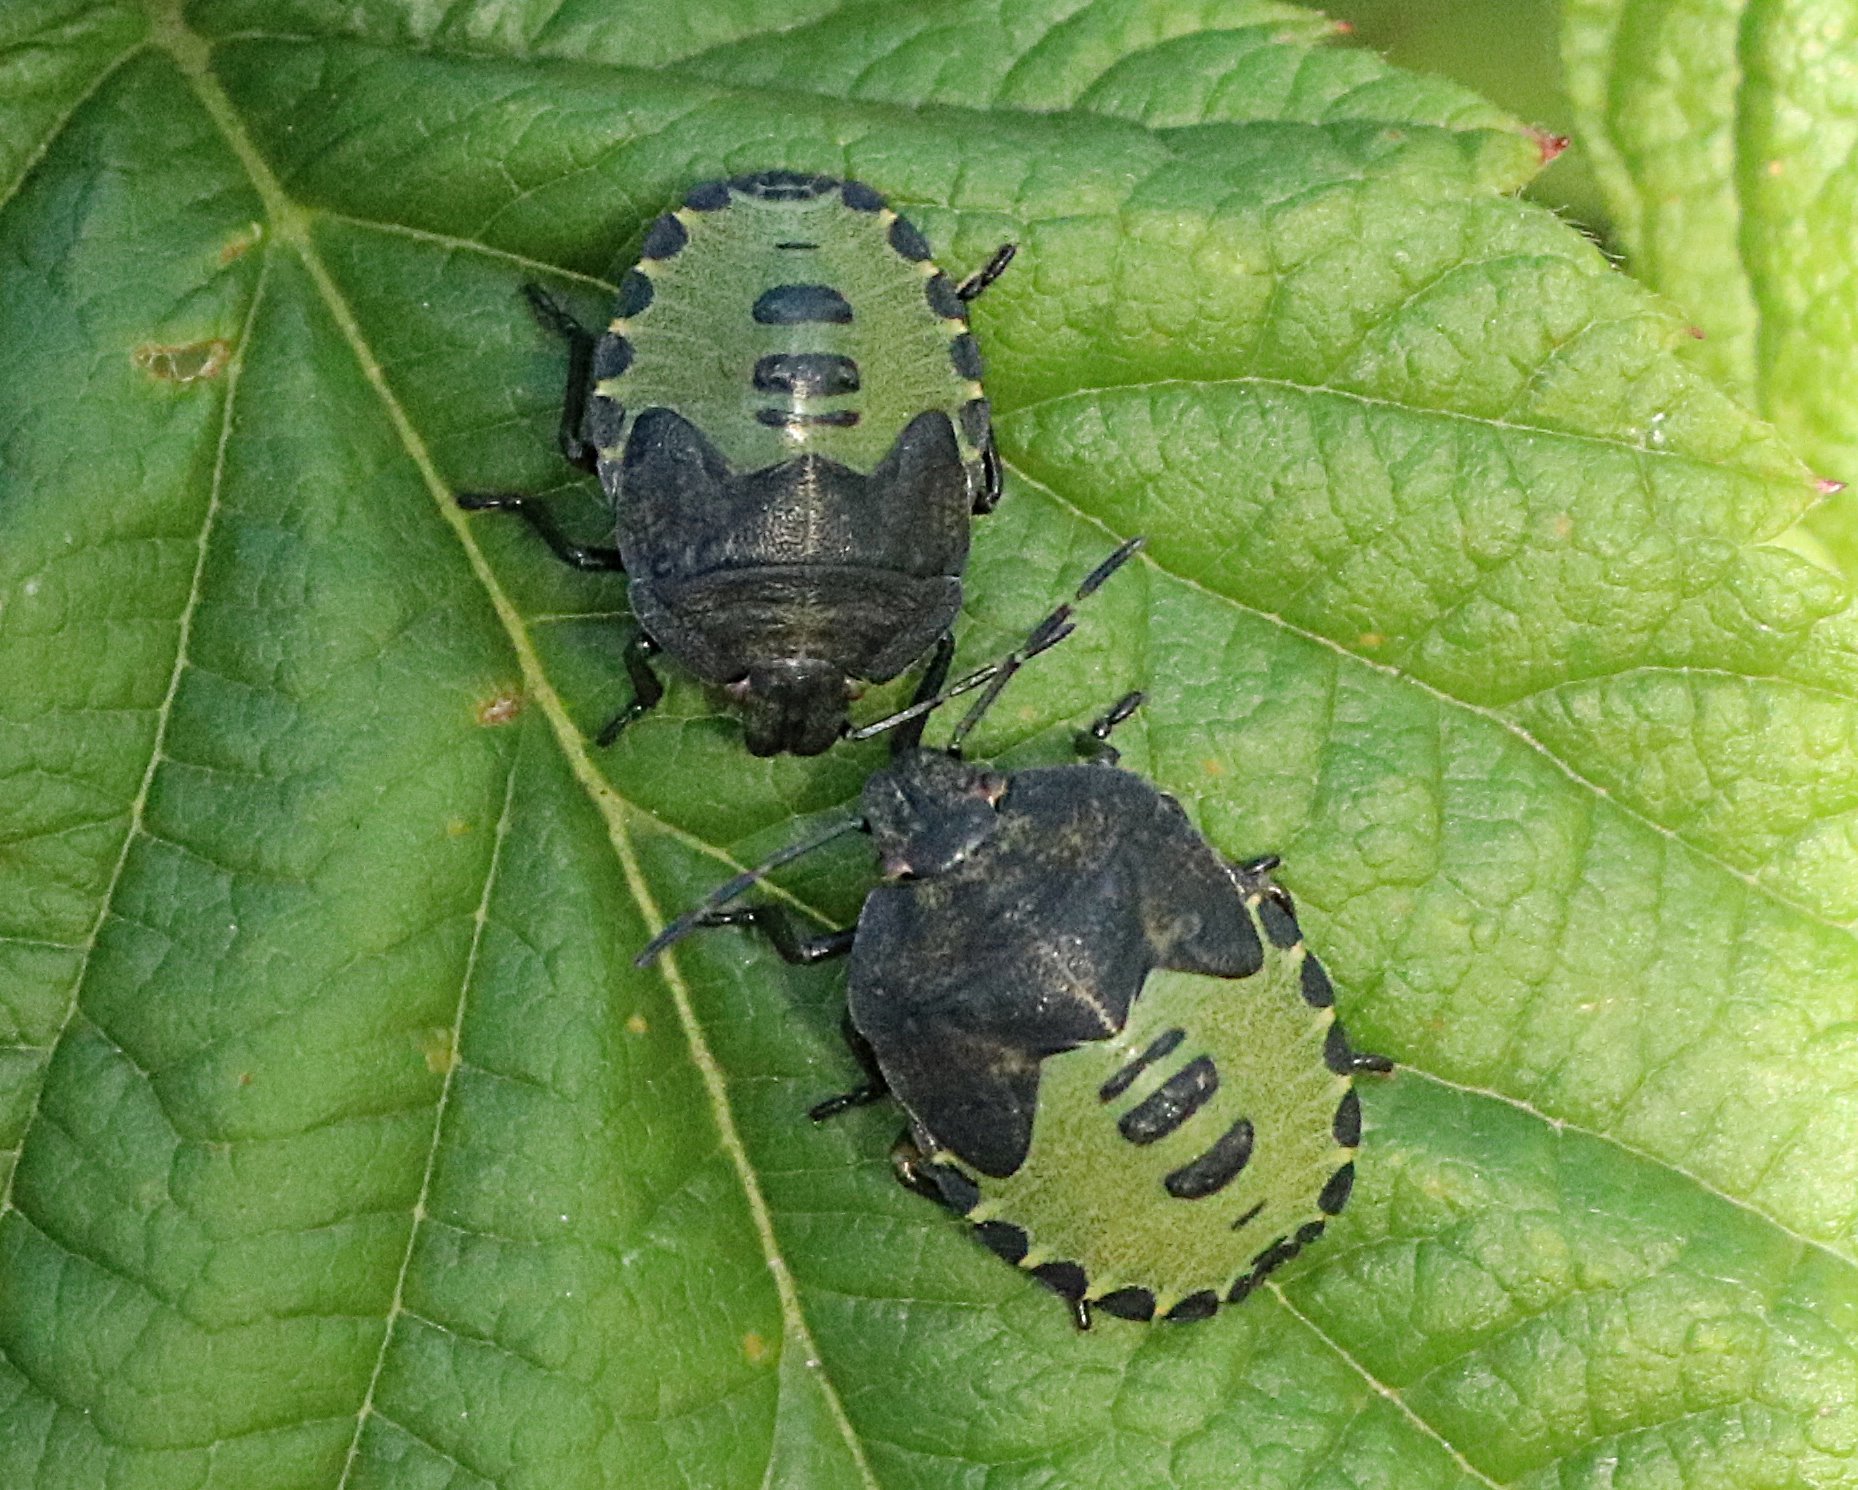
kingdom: Animalia
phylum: Arthropoda
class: Insecta
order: Hemiptera
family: Pentatomidae
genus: Palomena
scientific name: Palomena prasina
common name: Green shieldbug
